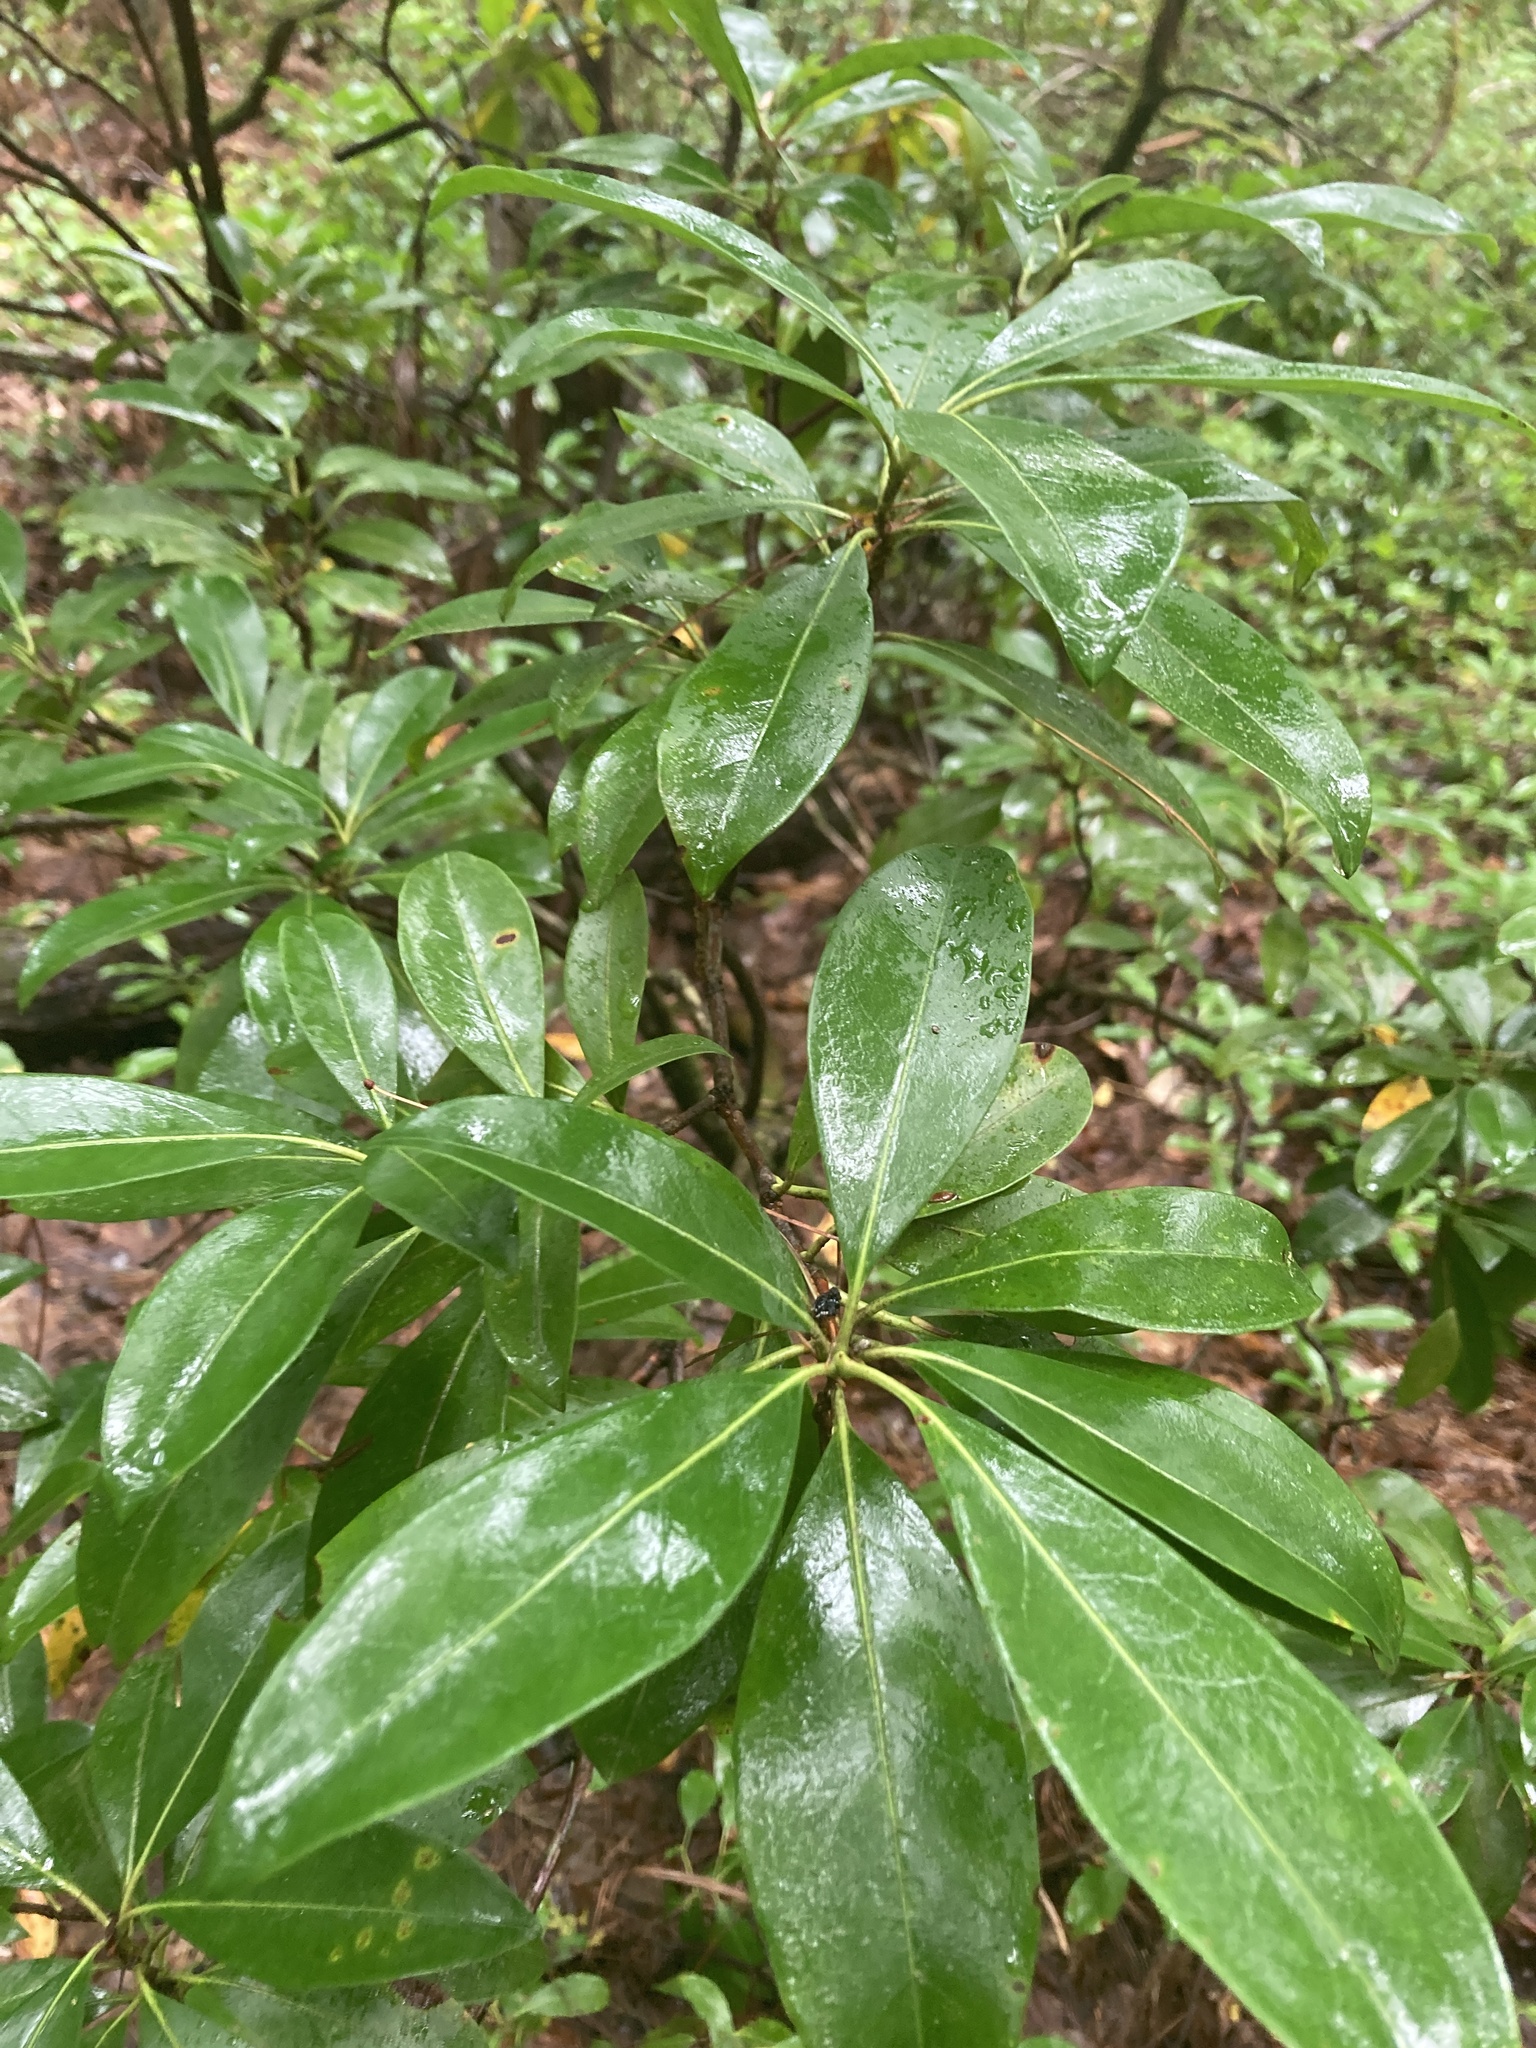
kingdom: Plantae
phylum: Tracheophyta
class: Magnoliopsida
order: Ericales
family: Ericaceae
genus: Kalmia
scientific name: Kalmia latifolia
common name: Mountain-laurel
